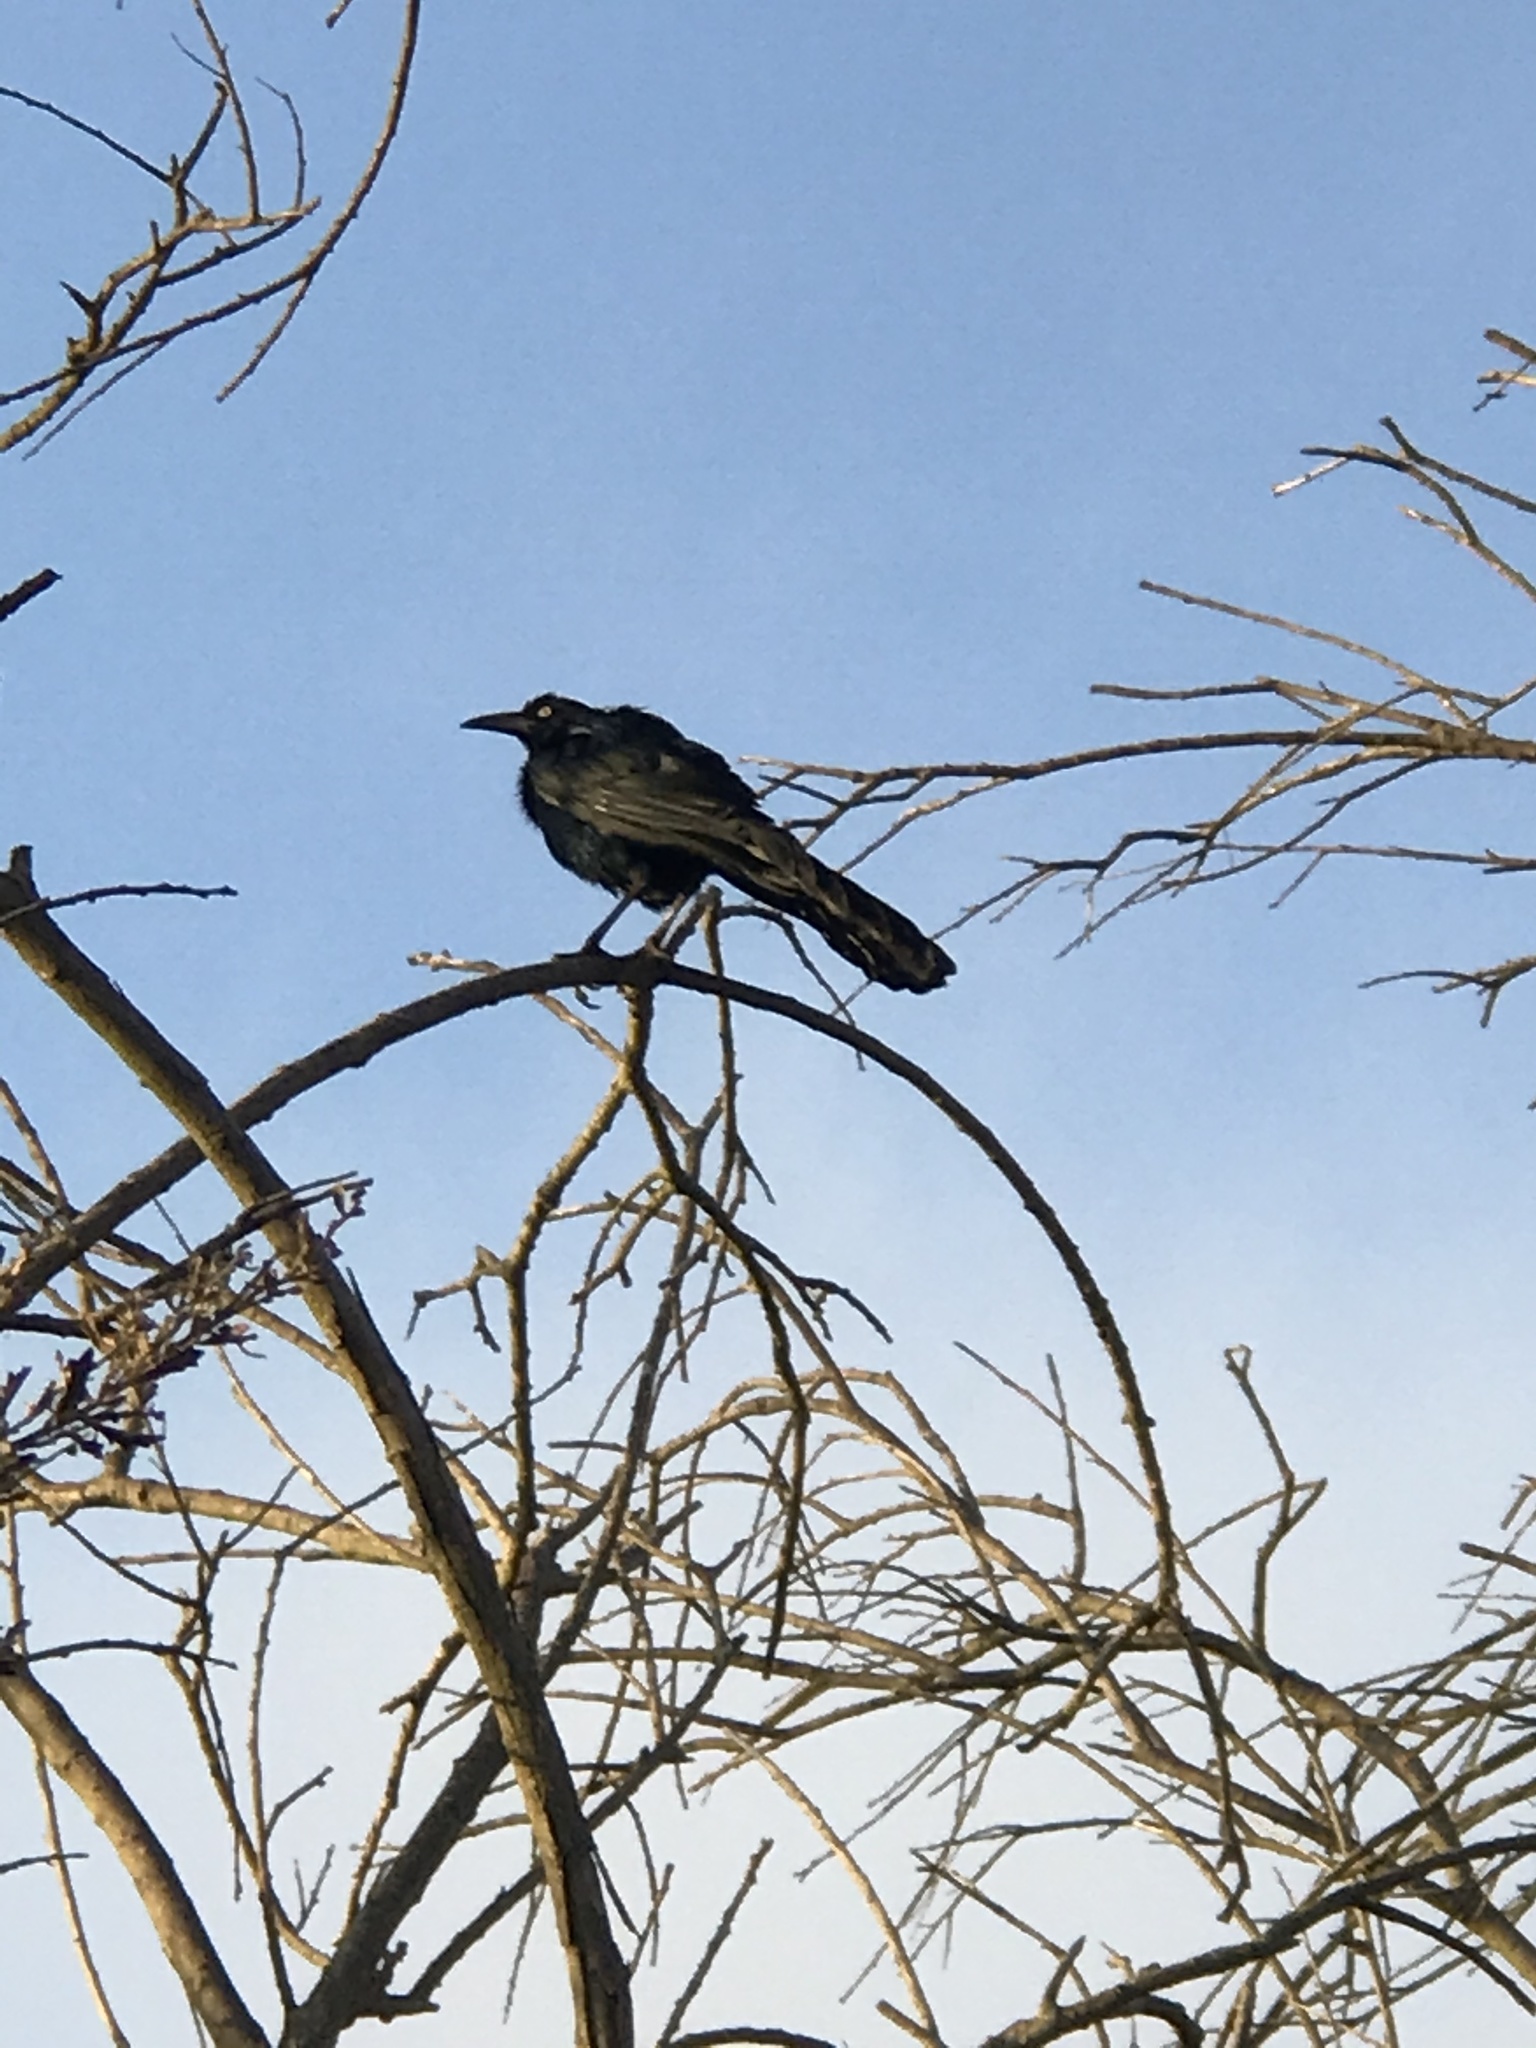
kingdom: Animalia
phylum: Chordata
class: Aves
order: Passeriformes
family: Icteridae
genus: Quiscalus
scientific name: Quiscalus mexicanus
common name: Great-tailed grackle
